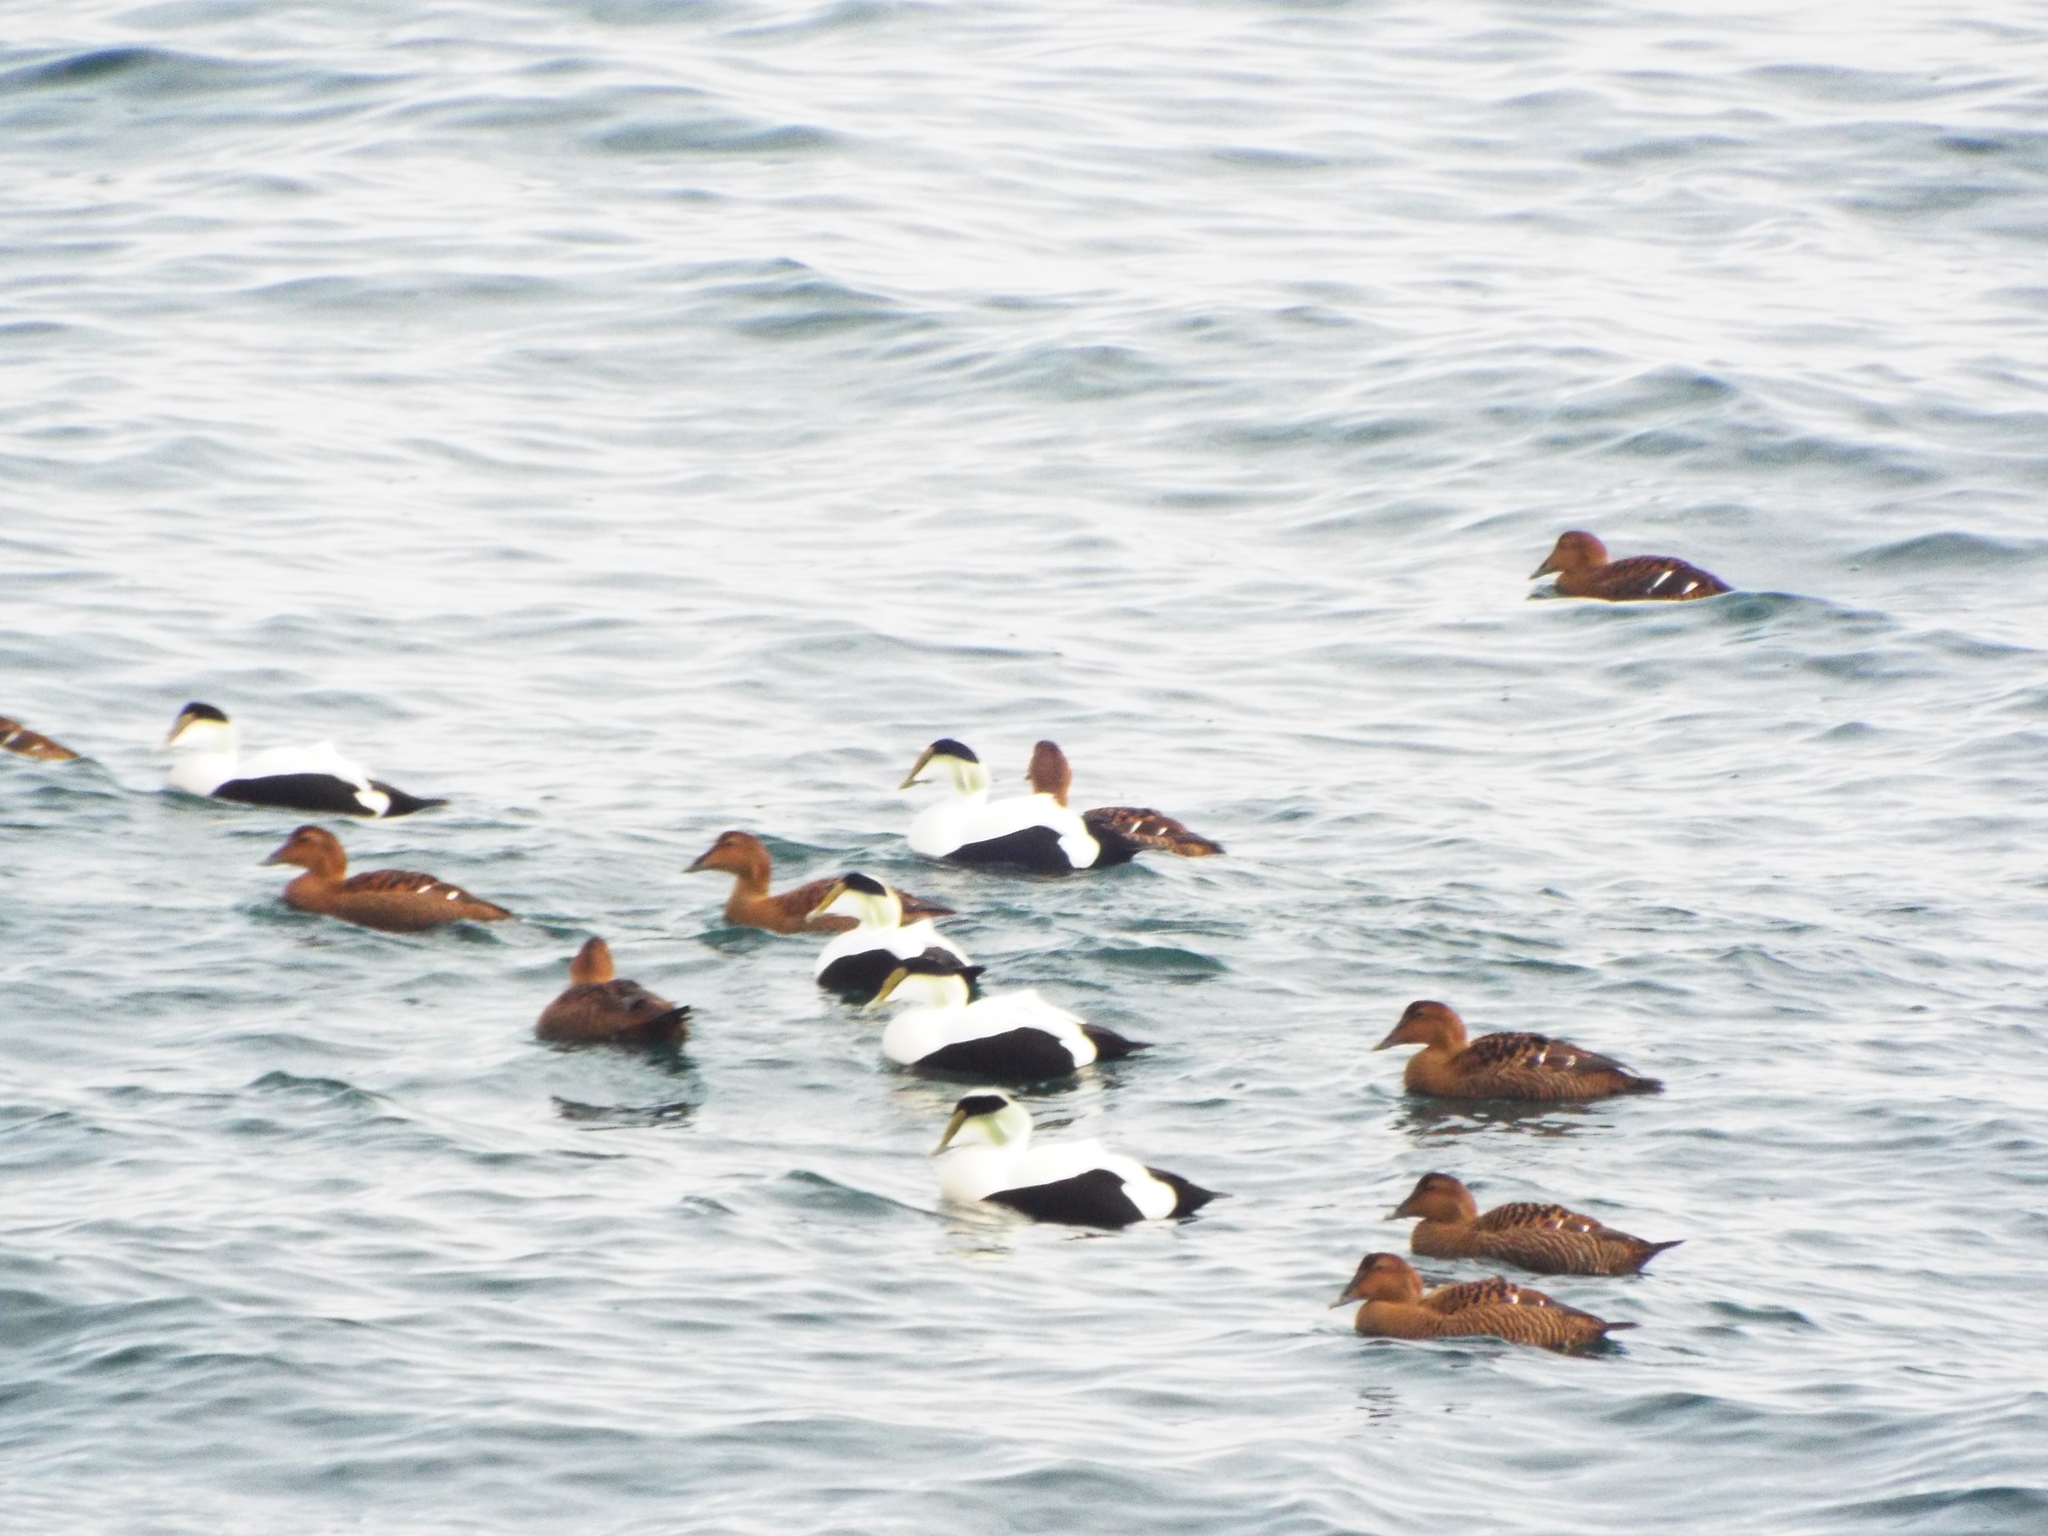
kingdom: Animalia
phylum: Chordata
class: Aves
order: Anseriformes
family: Anatidae
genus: Somateria
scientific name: Somateria mollissima
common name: Common eider
